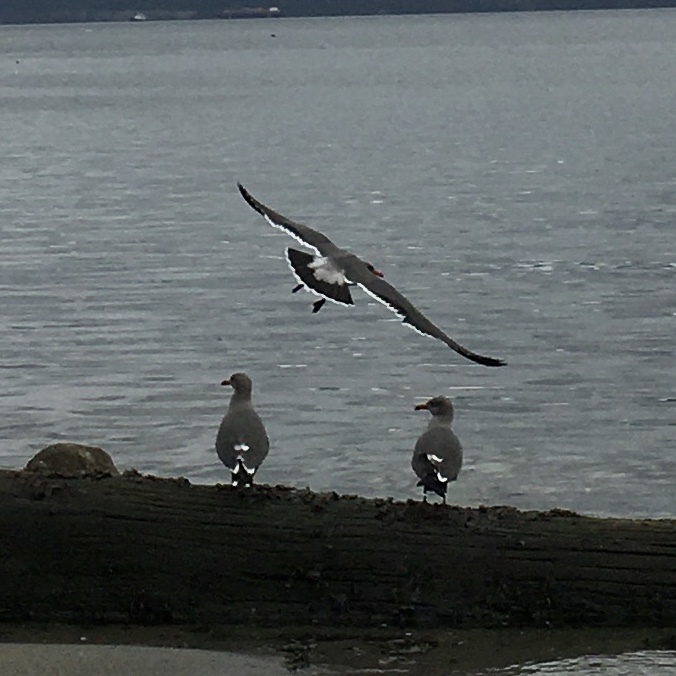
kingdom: Animalia
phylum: Chordata
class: Aves
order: Charadriiformes
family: Laridae
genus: Larus
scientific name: Larus heermanni
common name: Heermann's gull
